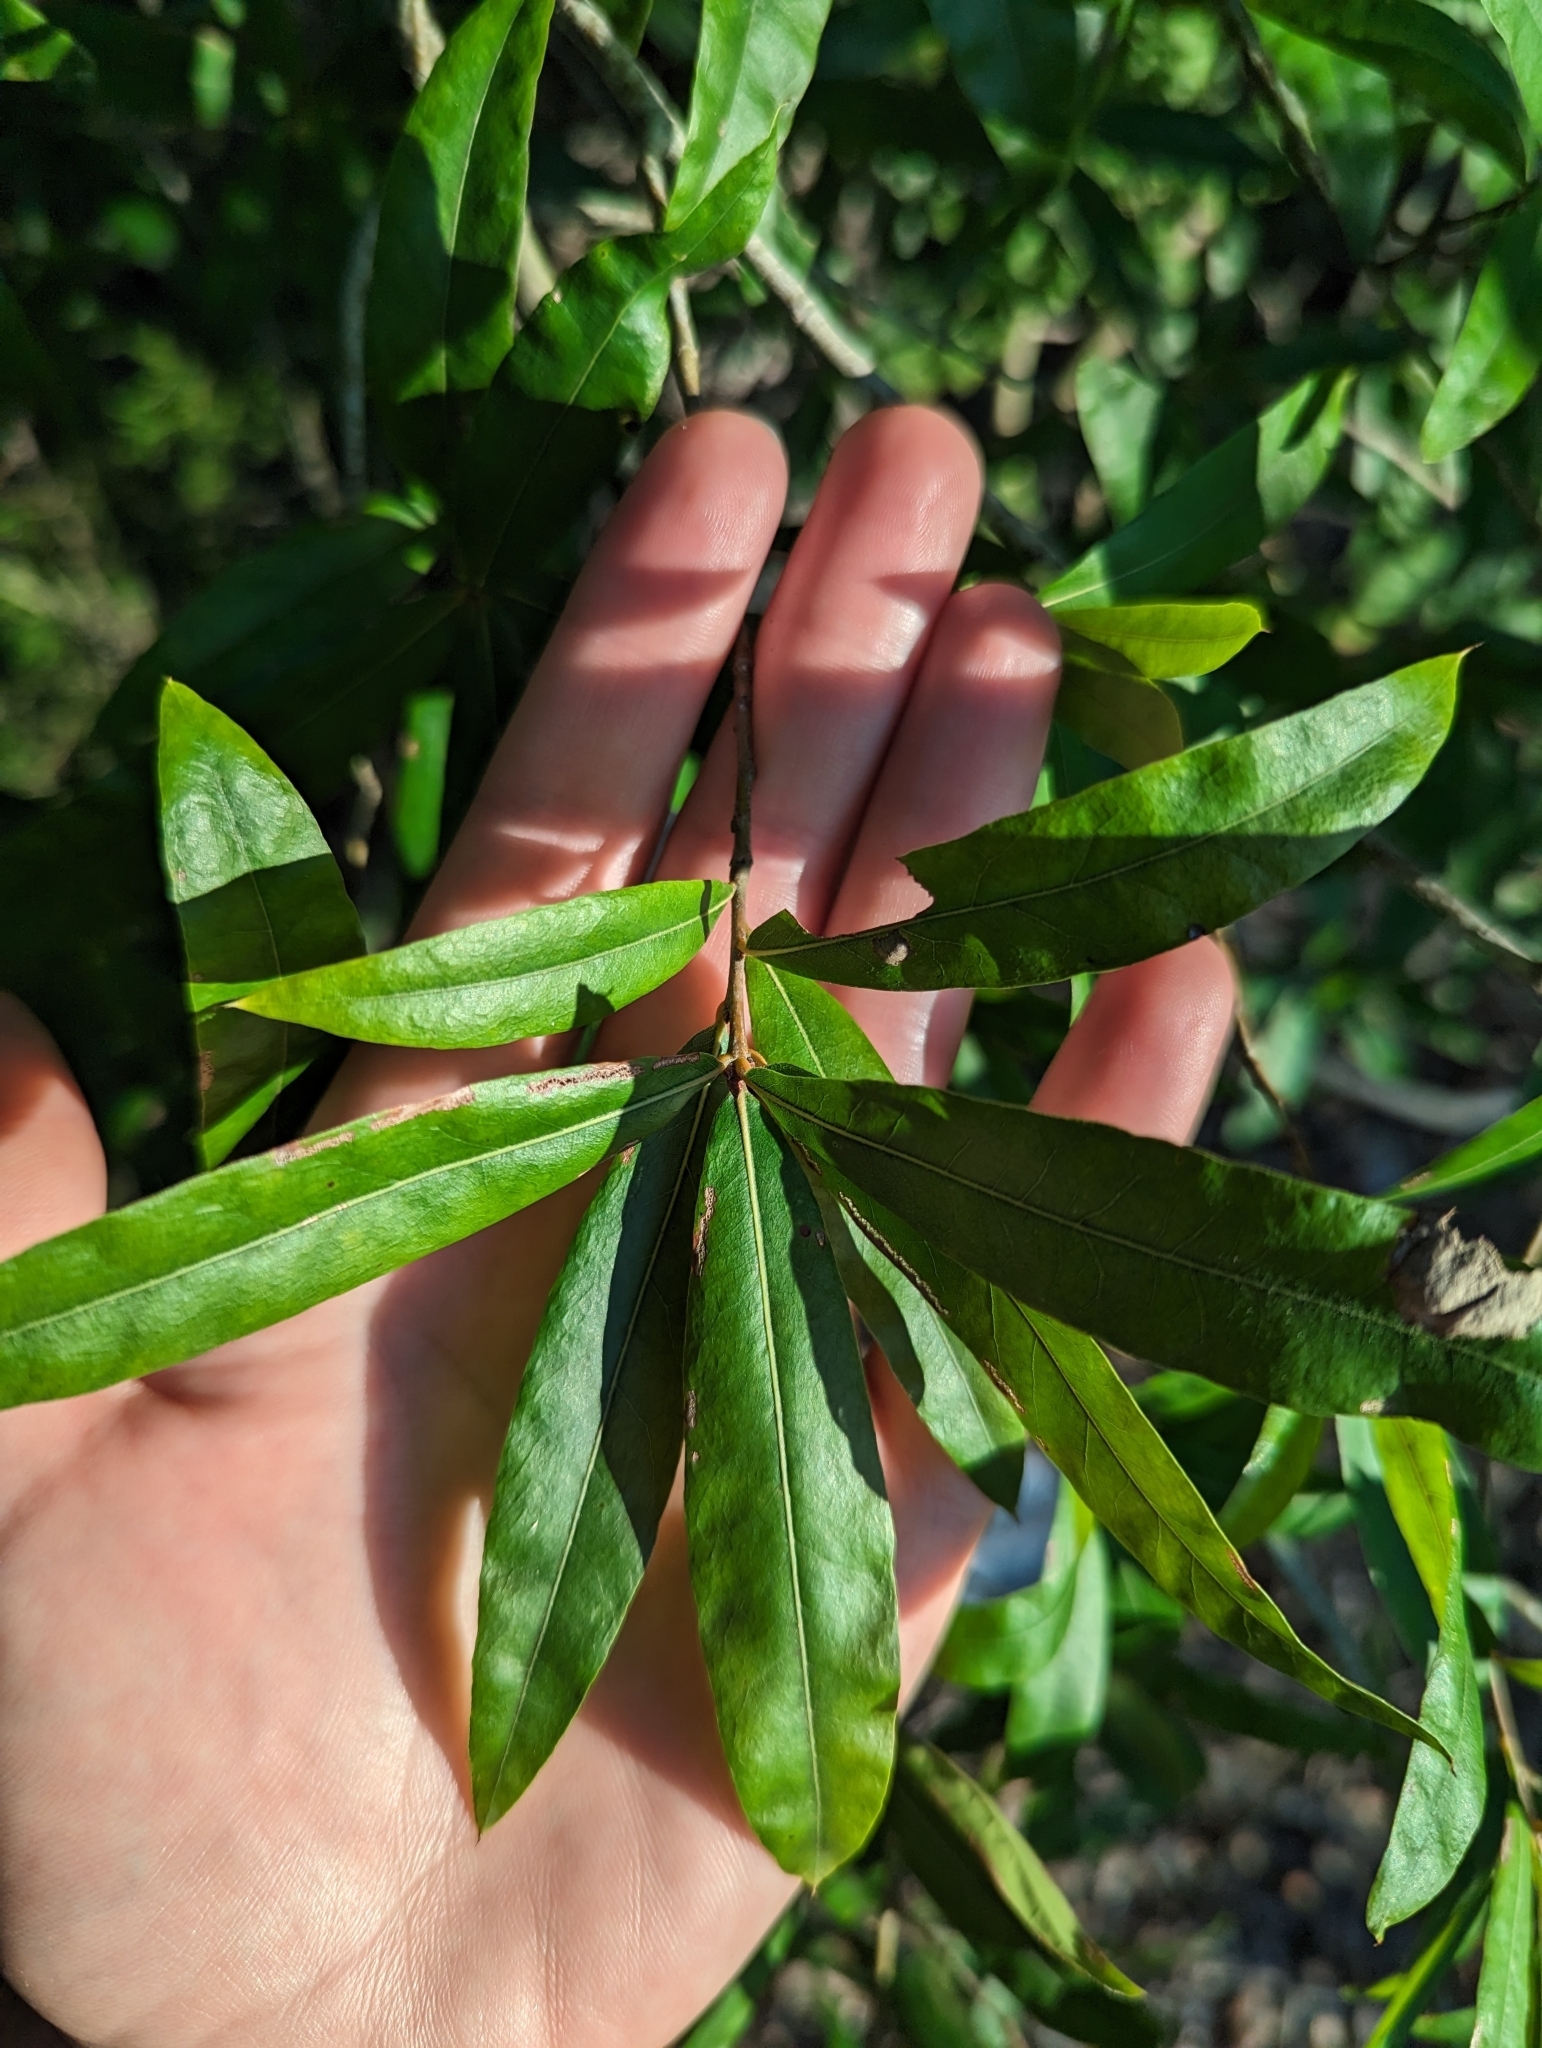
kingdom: Plantae
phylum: Tracheophyta
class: Magnoliopsida
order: Fagales
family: Fagaceae
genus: Quercus
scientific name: Quercus phellos
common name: Willow oak
